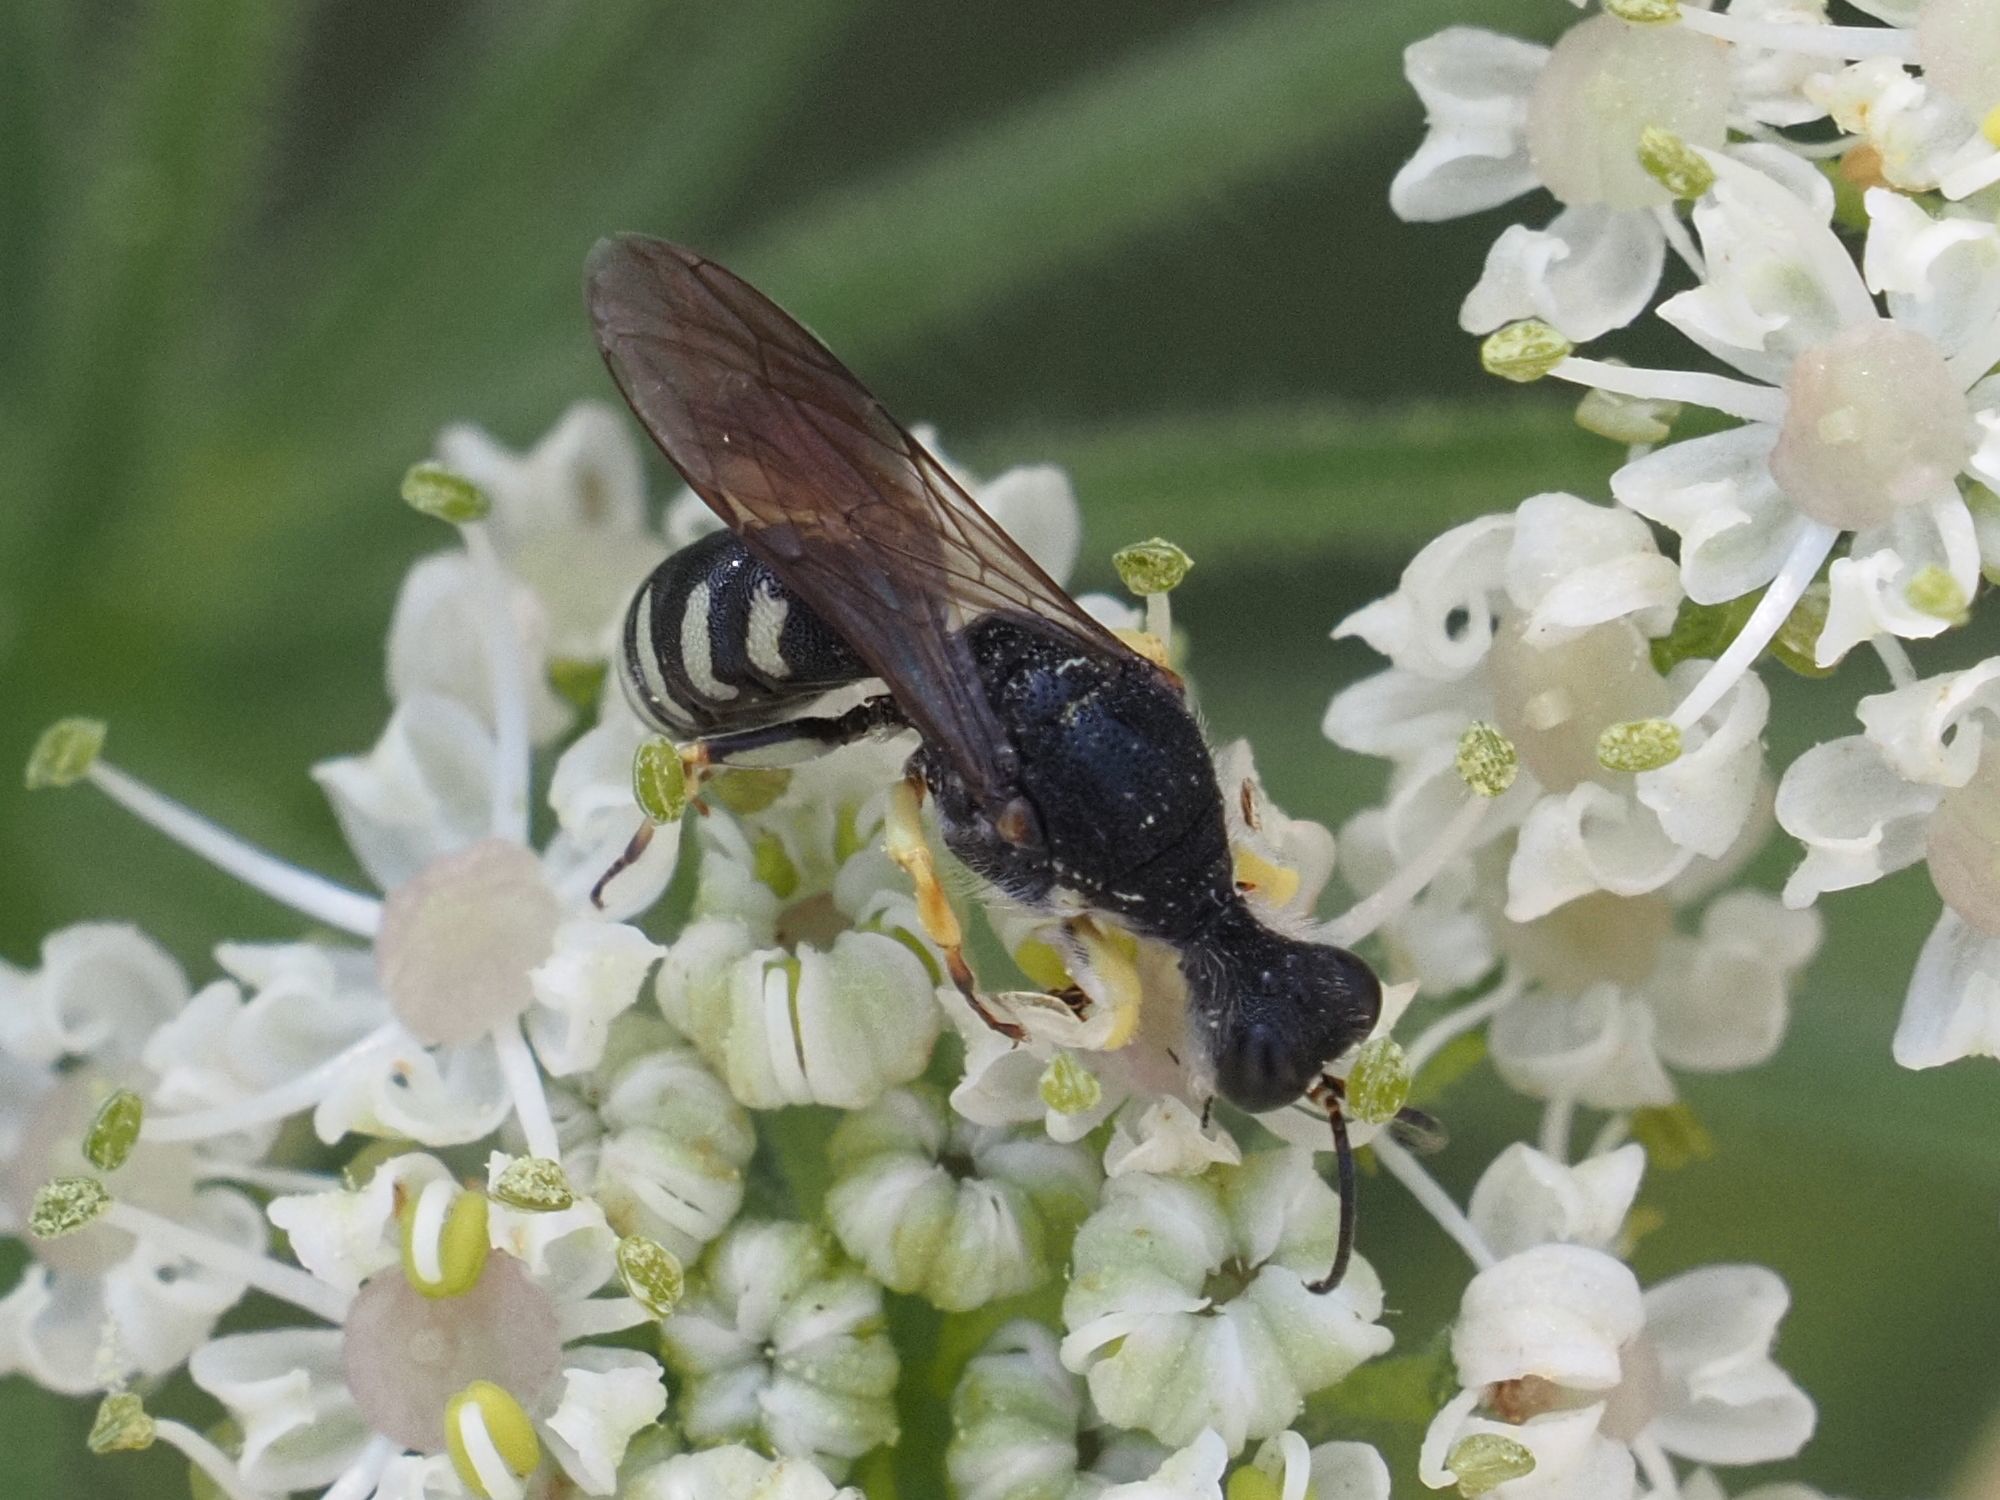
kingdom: Animalia
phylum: Arthropoda
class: Insecta
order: Hymenoptera
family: Crabronidae
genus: Lestica
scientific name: Lestica clypeata
